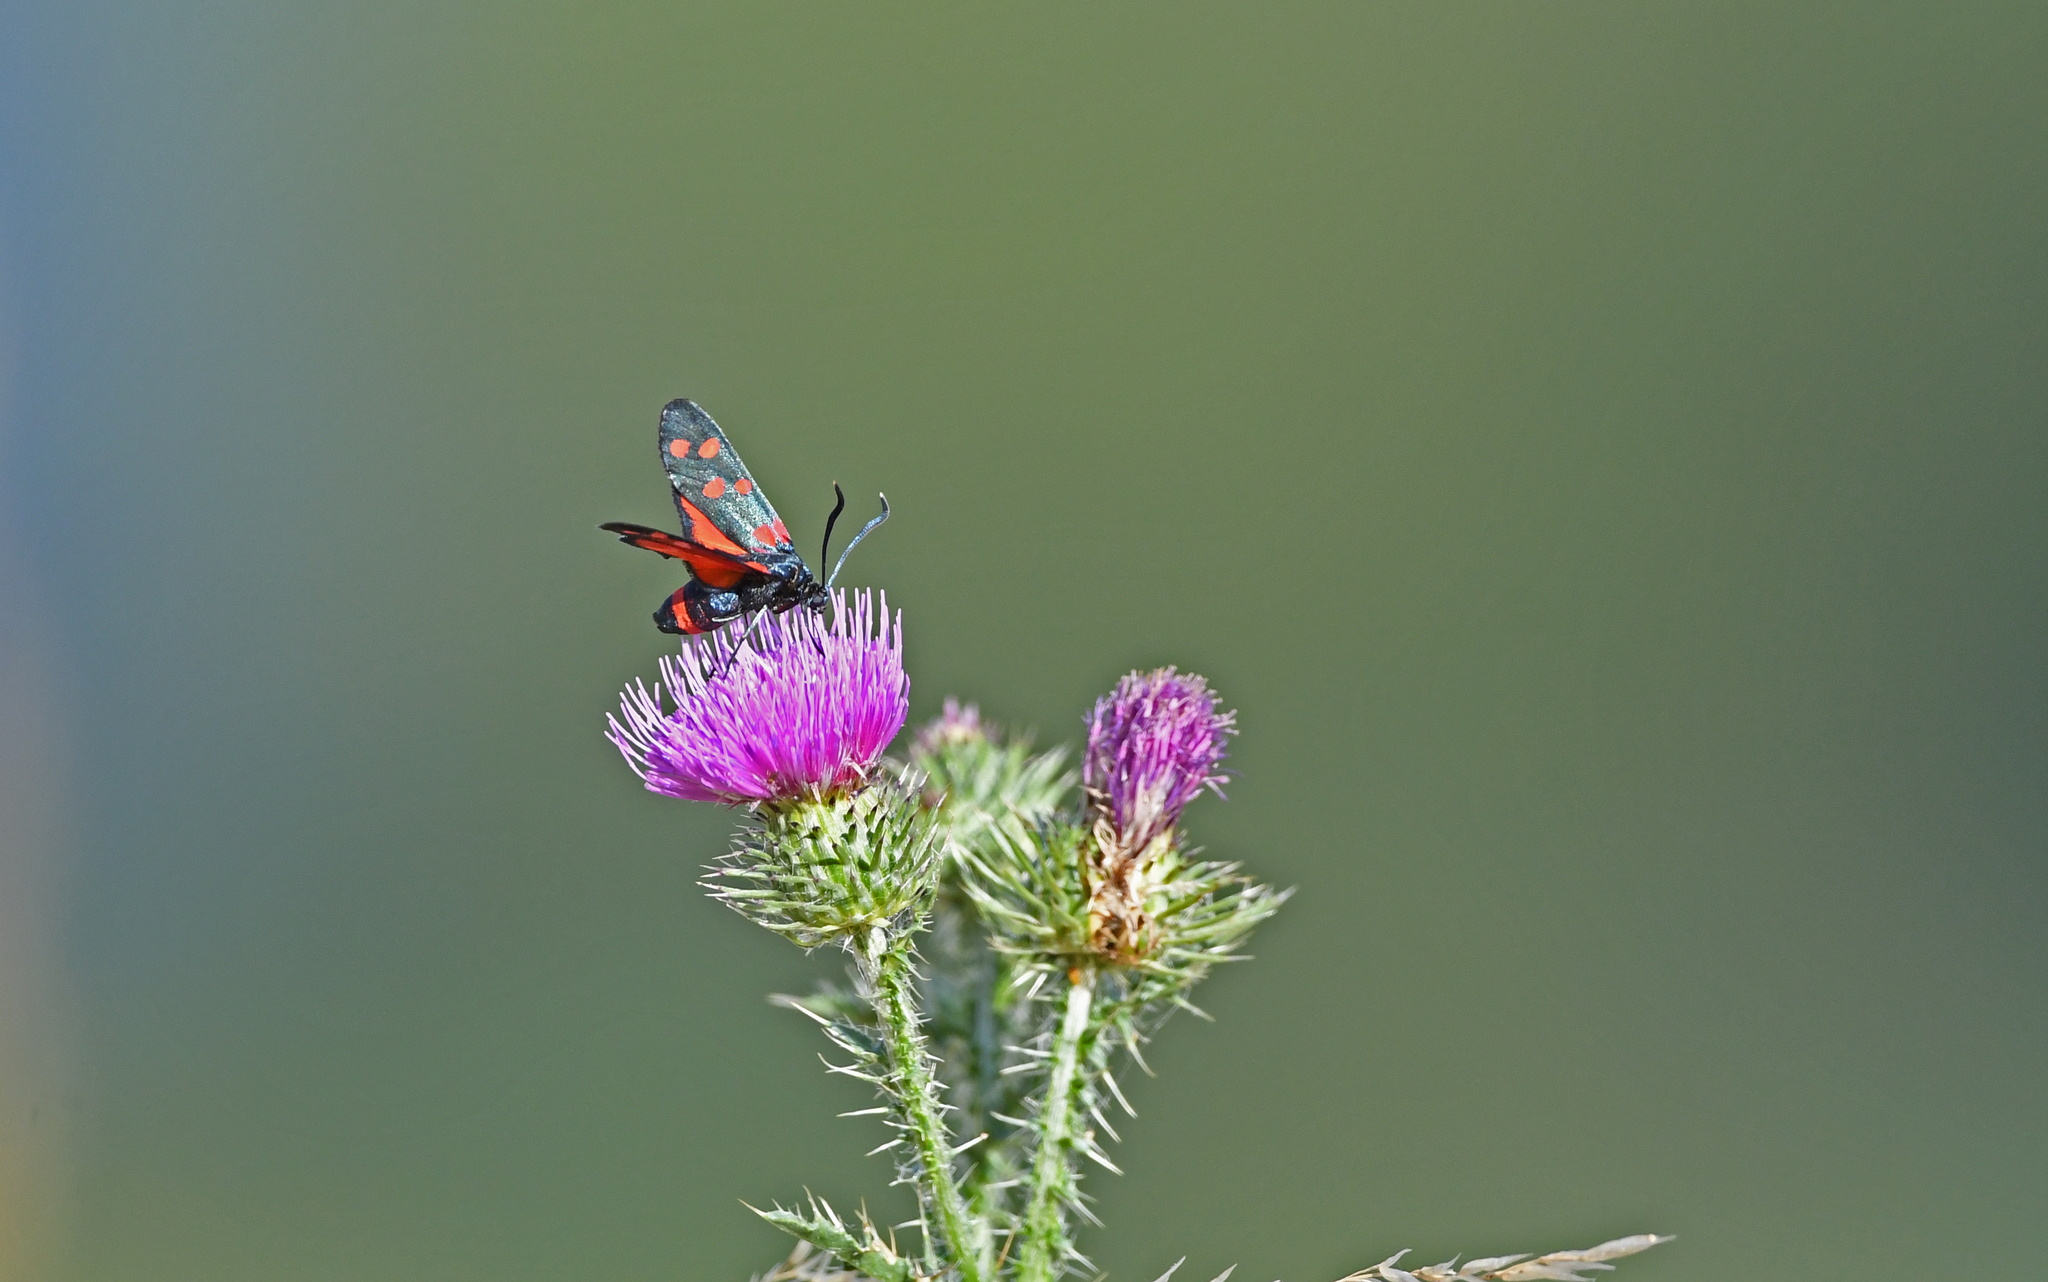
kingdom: Animalia
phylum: Arthropoda
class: Insecta
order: Lepidoptera
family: Zygaenidae
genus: Zygaena
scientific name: Zygaena ephialtes
